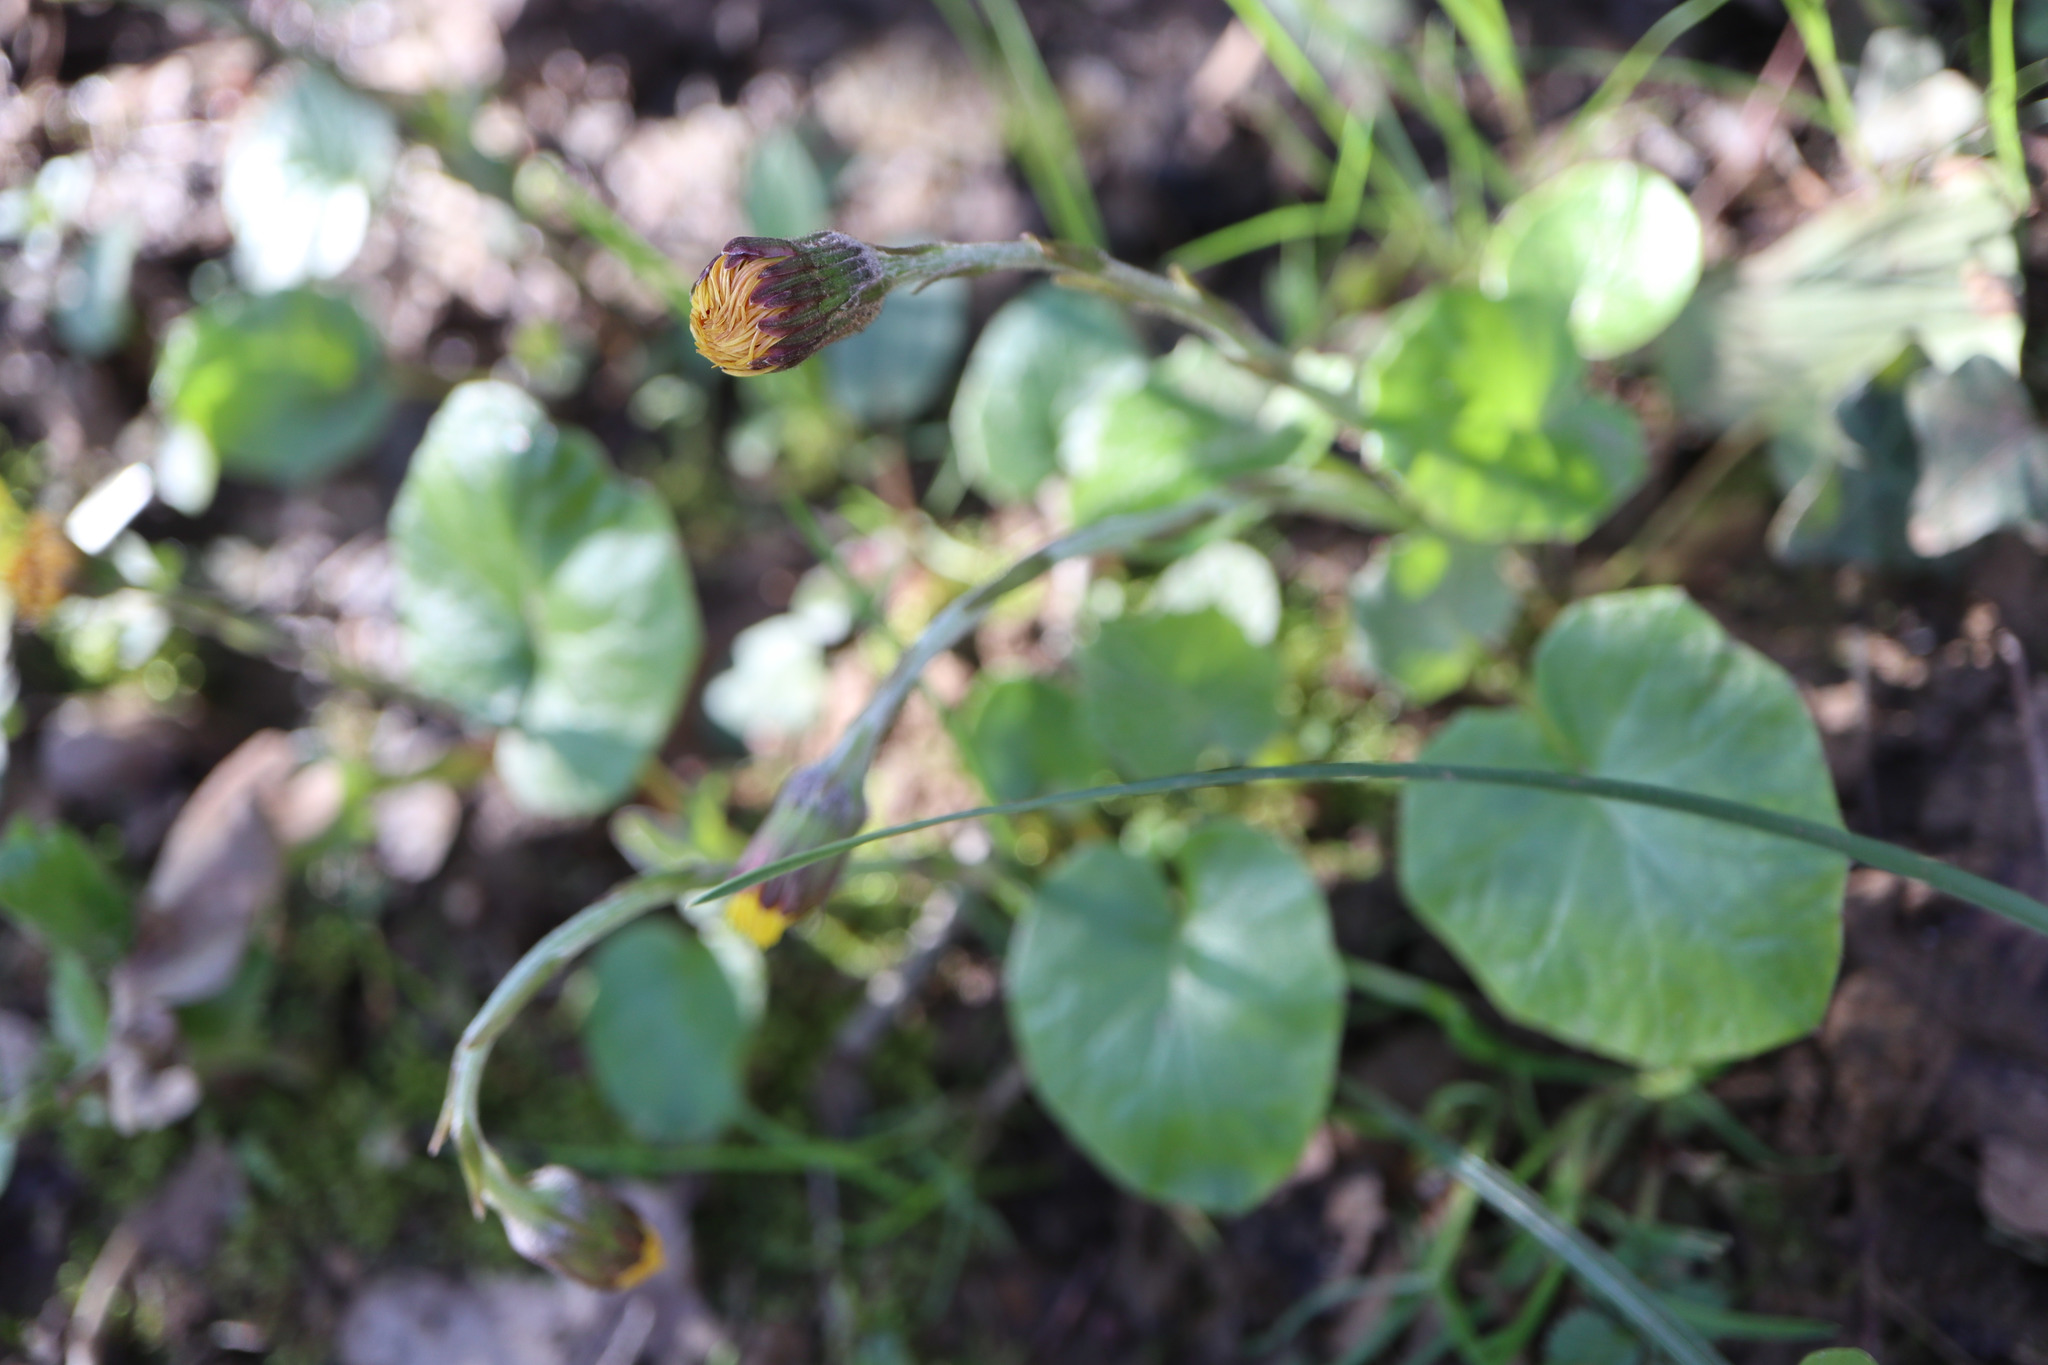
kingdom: Plantae
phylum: Tracheophyta
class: Magnoliopsida
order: Asterales
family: Asteraceae
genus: Tussilago
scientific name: Tussilago farfara
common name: Coltsfoot
